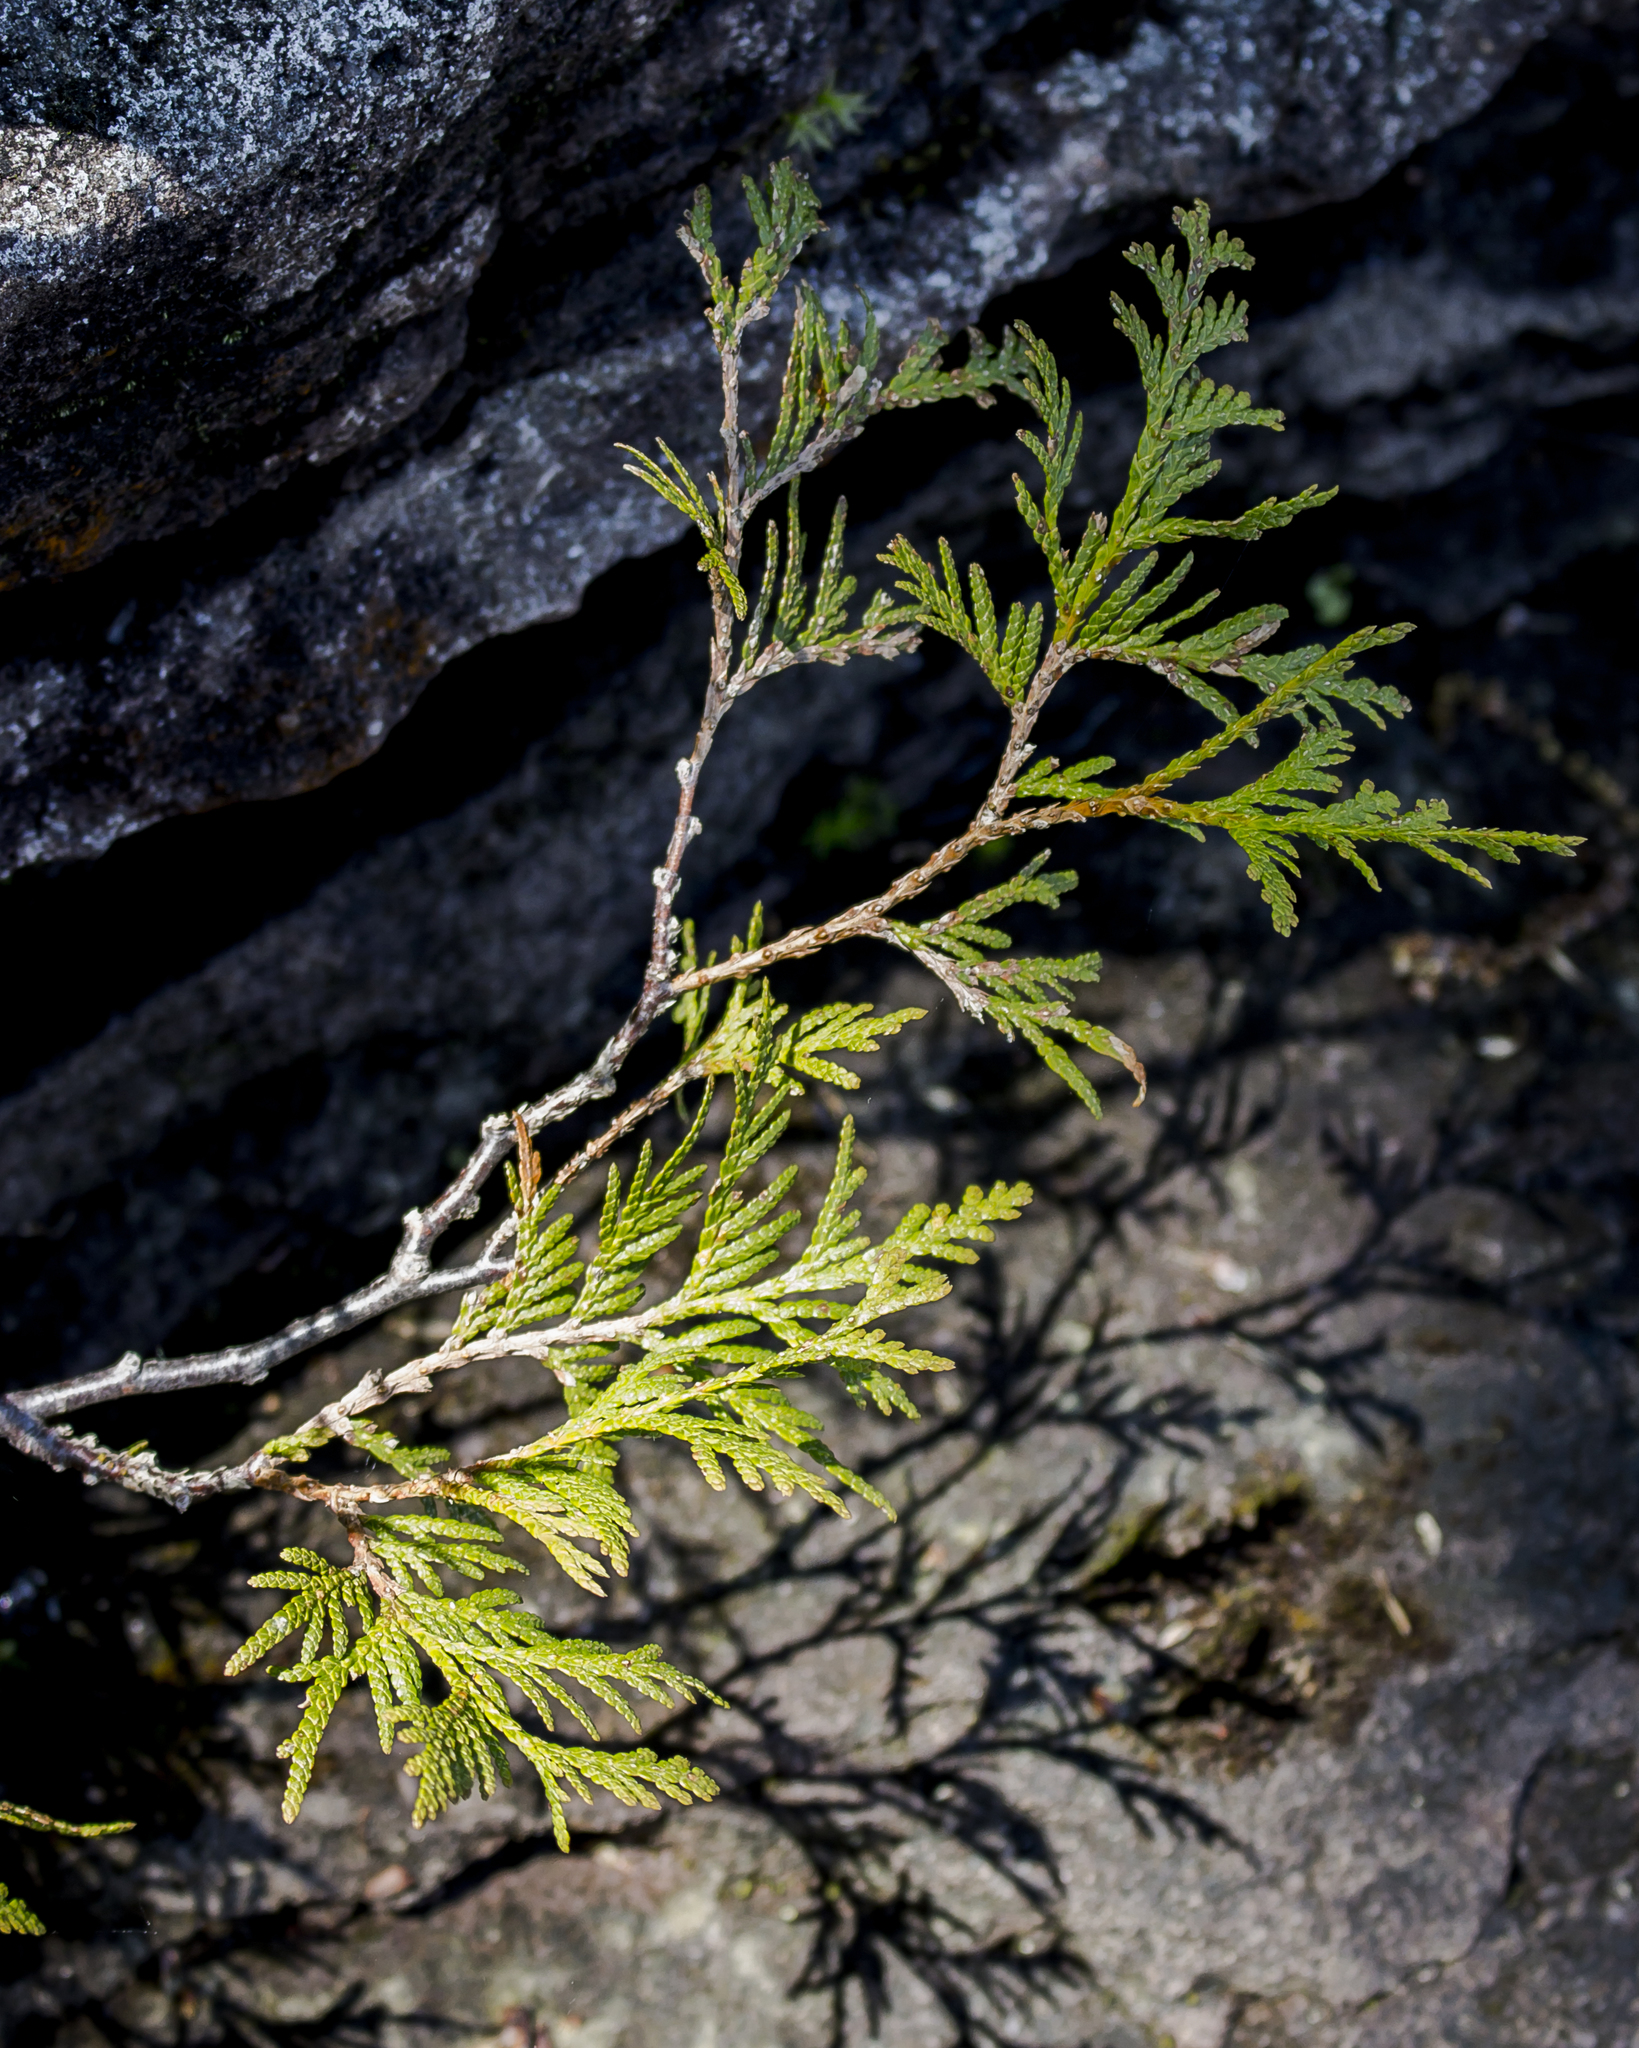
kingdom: Plantae
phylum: Tracheophyta
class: Pinopsida
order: Pinales
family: Cupressaceae
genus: Thuja
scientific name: Thuja occidentalis
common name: Northern white-cedar
